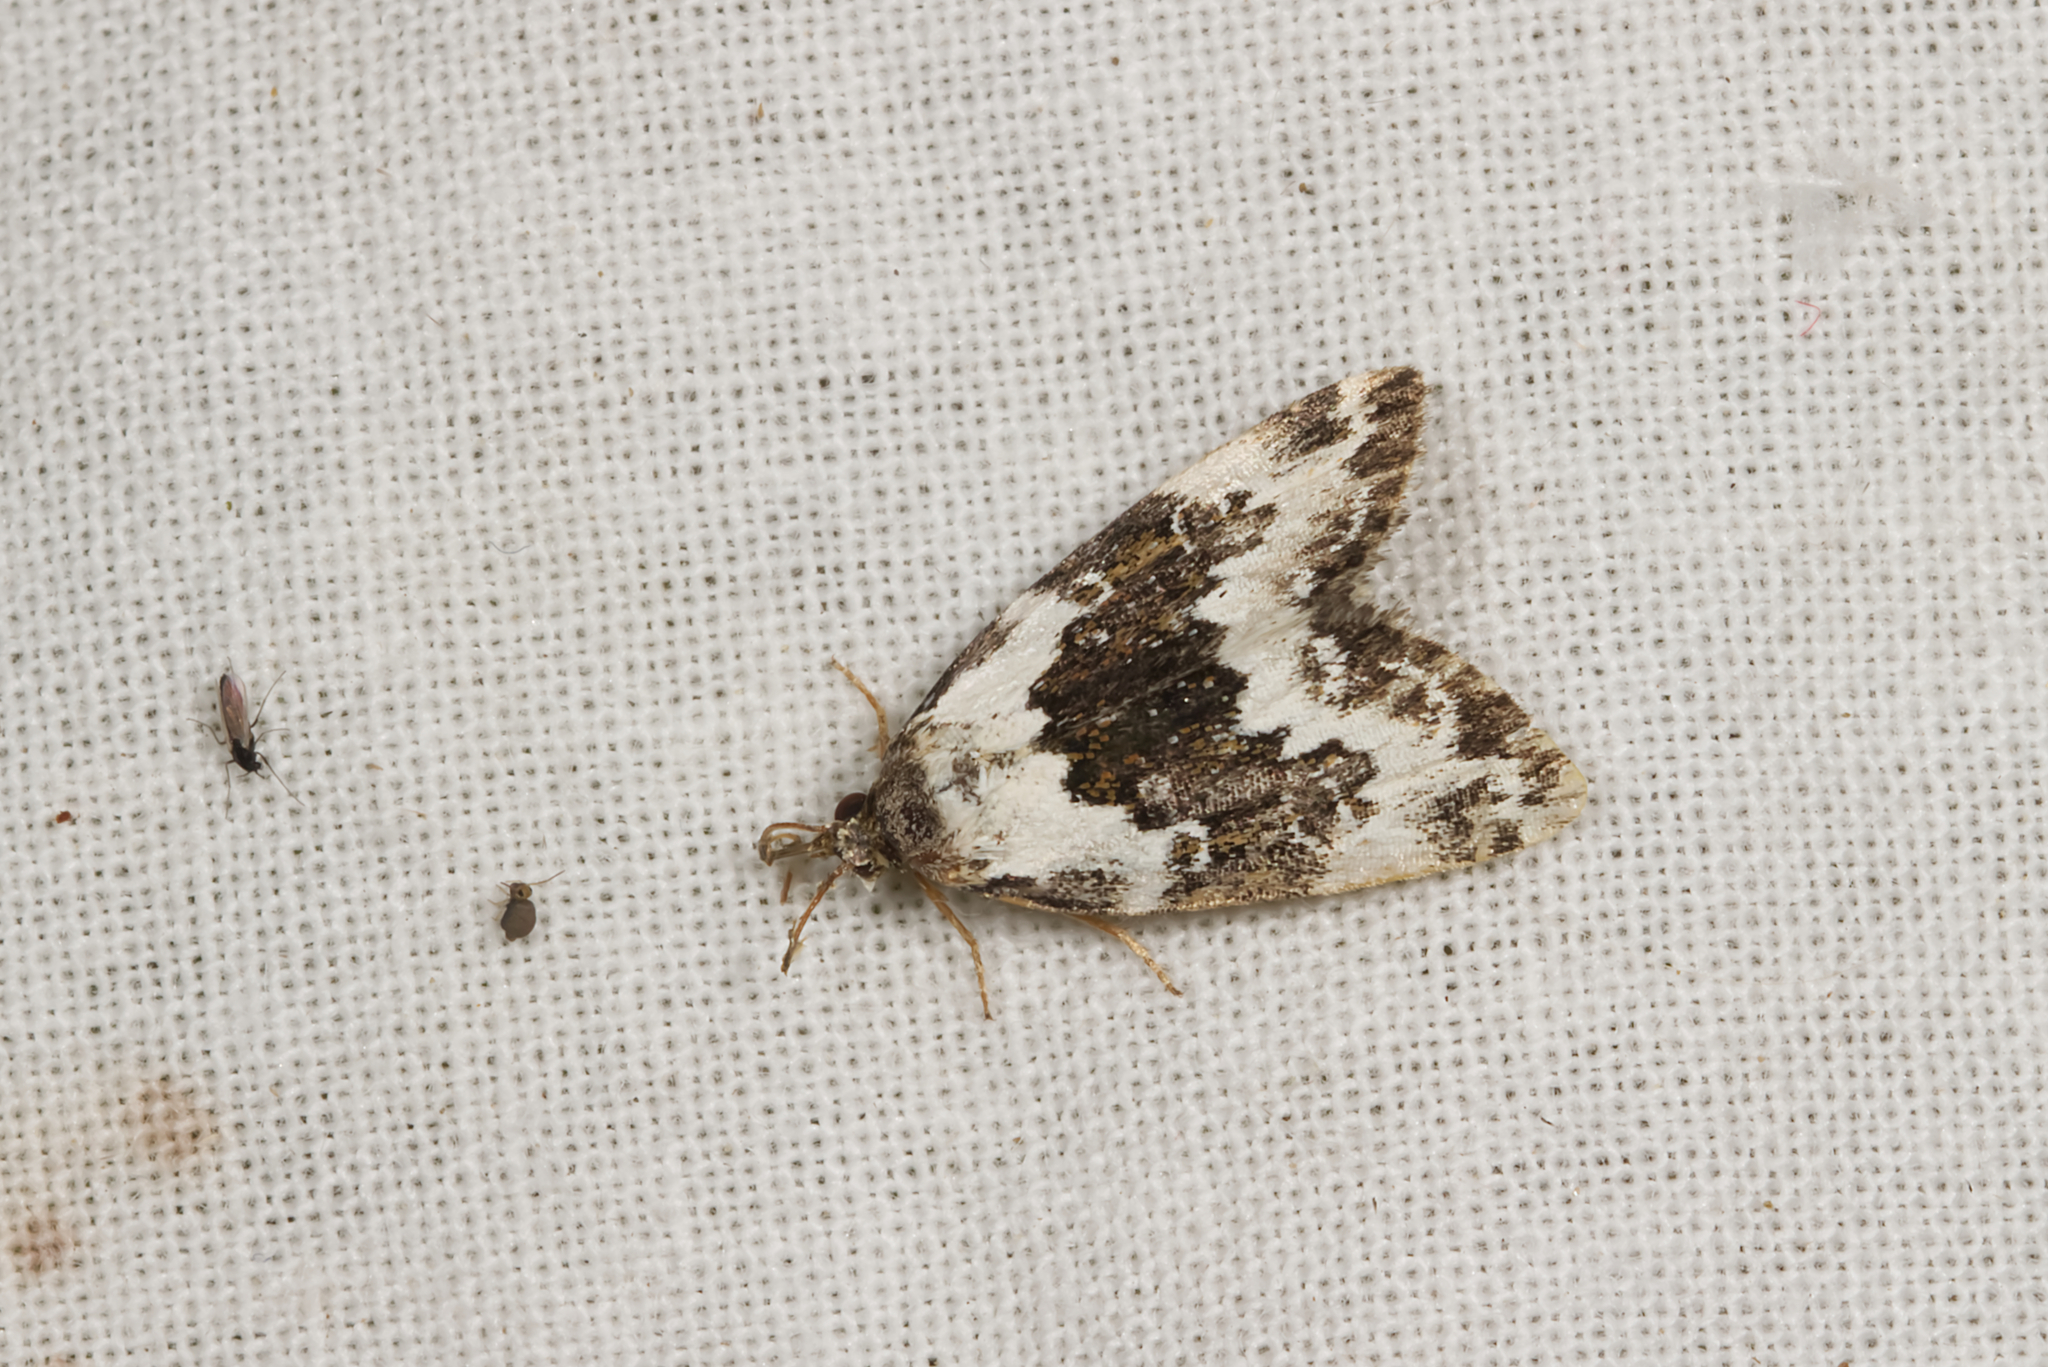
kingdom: Animalia
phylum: Arthropoda
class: Insecta
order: Lepidoptera
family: Noctuidae
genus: Deltote
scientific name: Deltote deceptoria
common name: Pretty marbled
